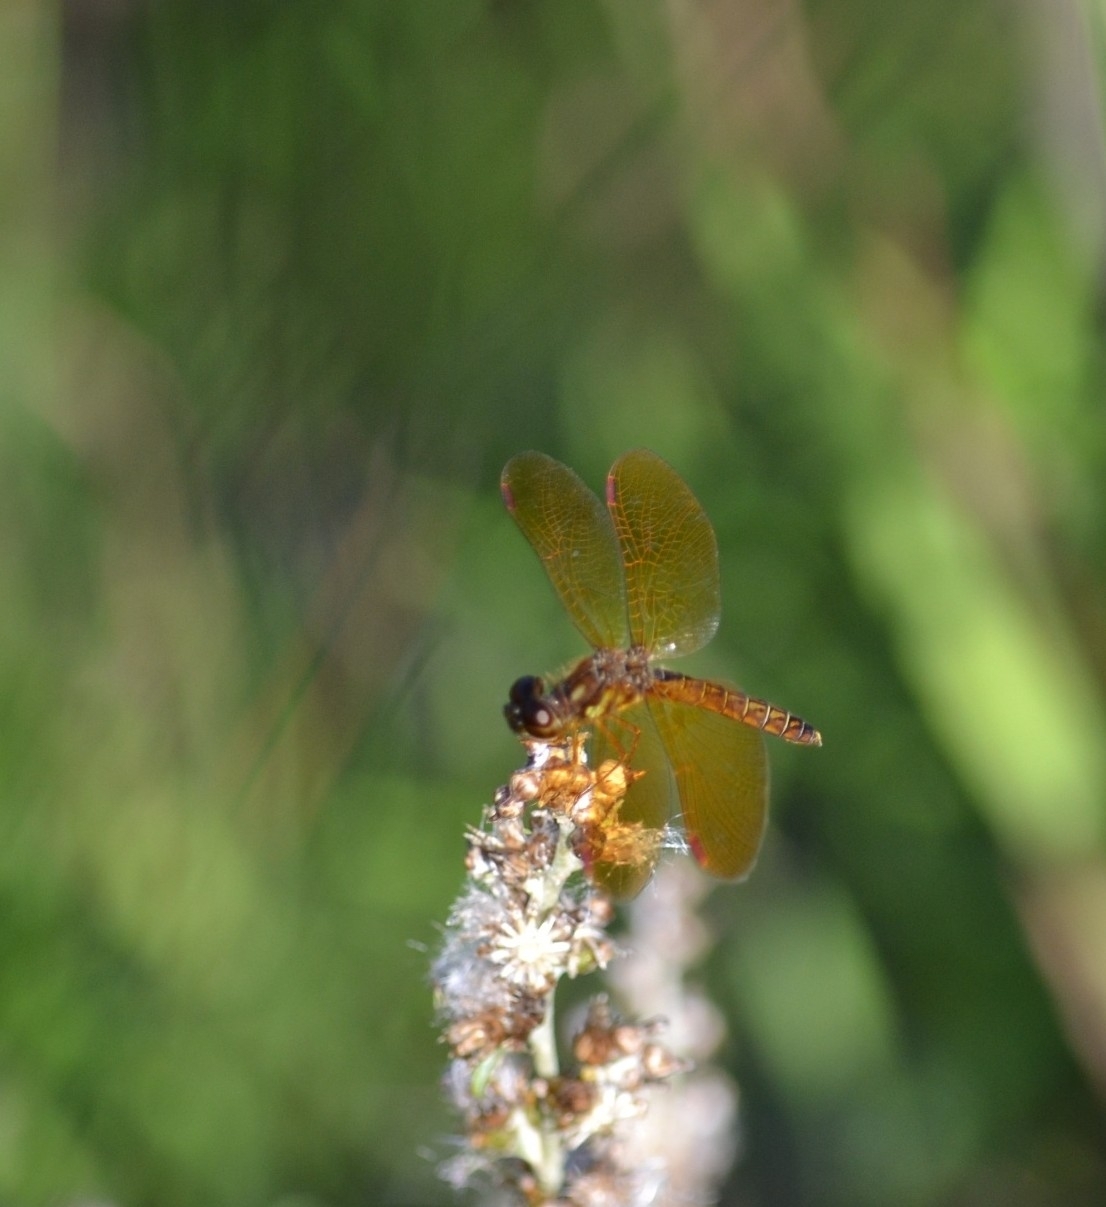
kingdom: Animalia
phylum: Arthropoda
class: Insecta
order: Odonata
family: Libellulidae
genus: Perithemis
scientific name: Perithemis tenera
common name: Eastern amberwing
